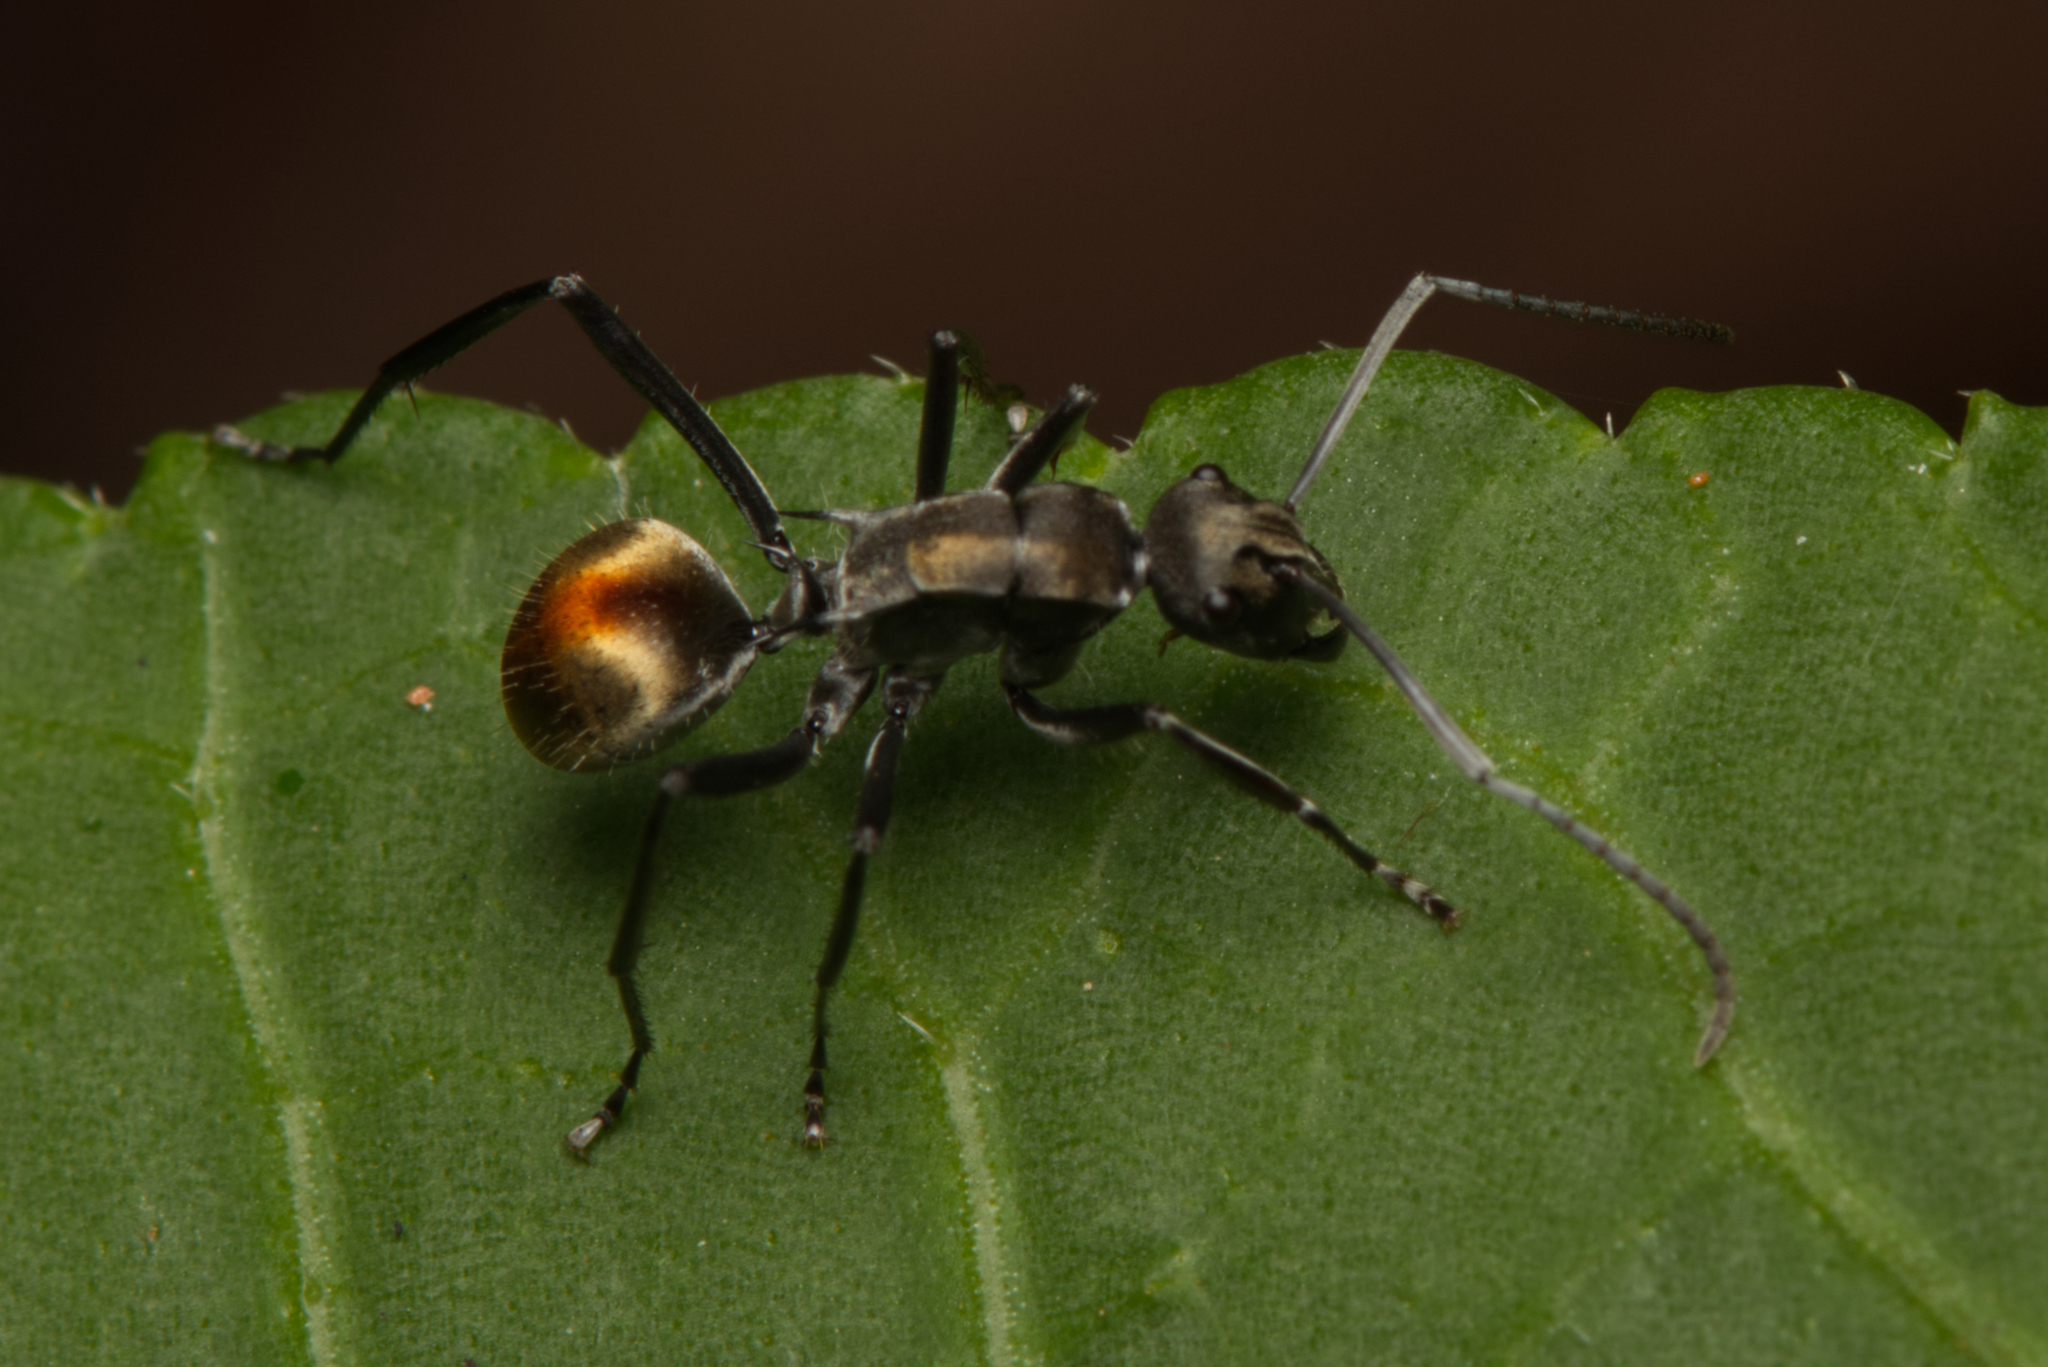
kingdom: Animalia
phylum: Arthropoda
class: Insecta
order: Hymenoptera
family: Formicidae
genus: Polyrhachis
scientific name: Polyrhachis
